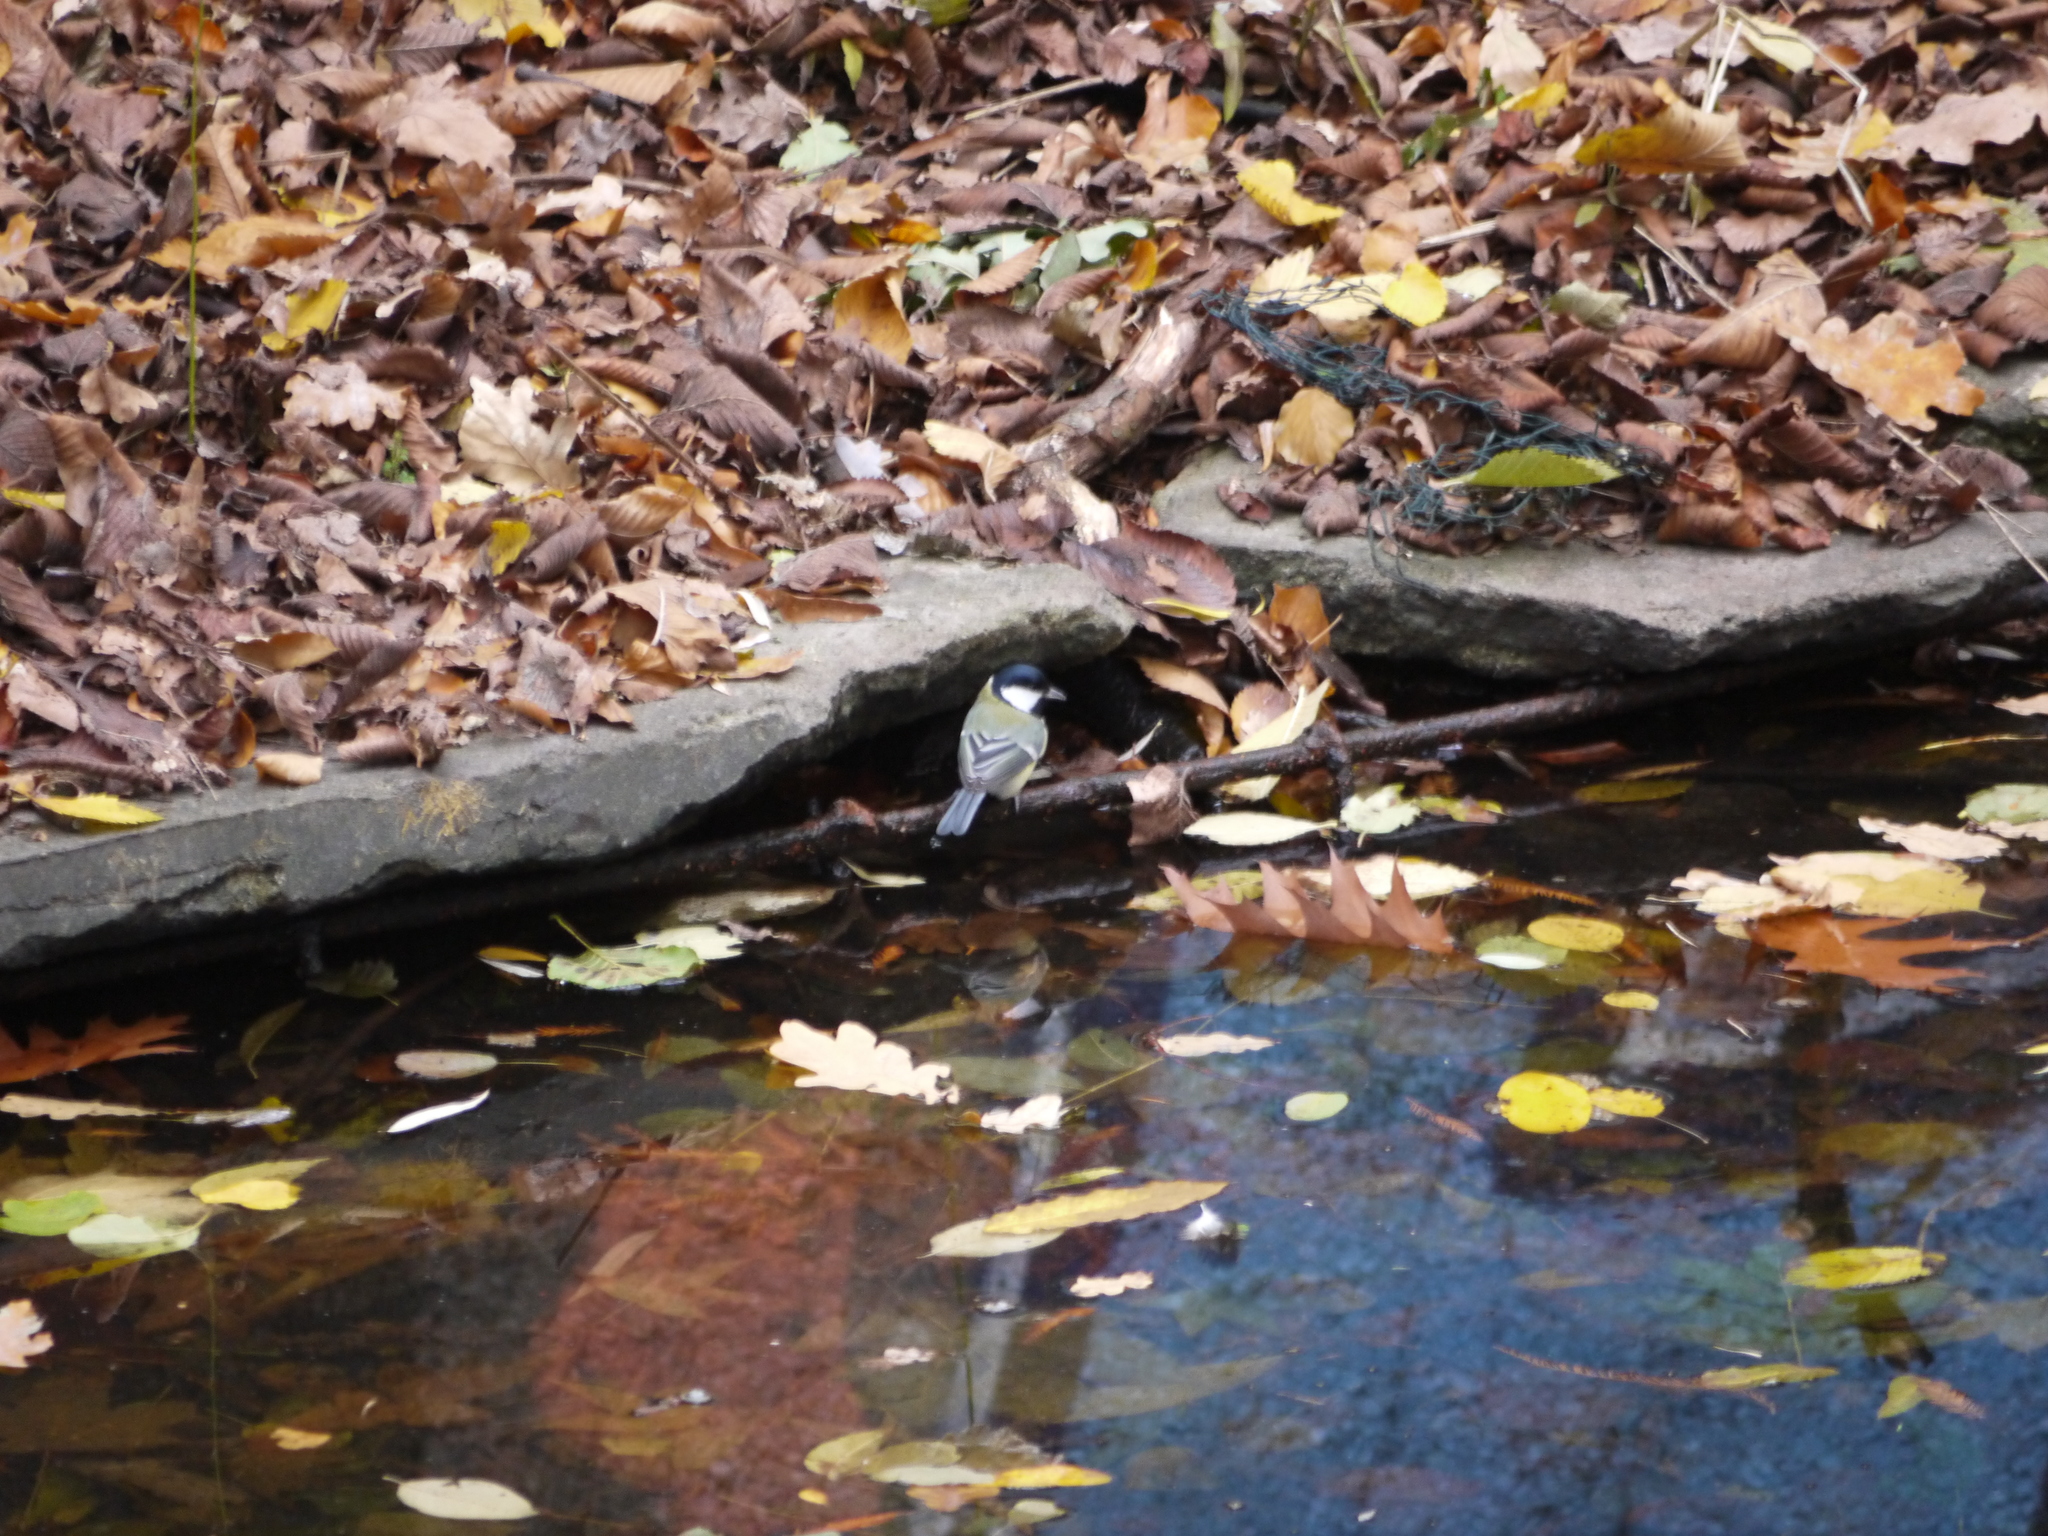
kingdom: Animalia
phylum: Chordata
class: Aves
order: Passeriformes
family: Paridae
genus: Parus
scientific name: Parus major
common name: Great tit
